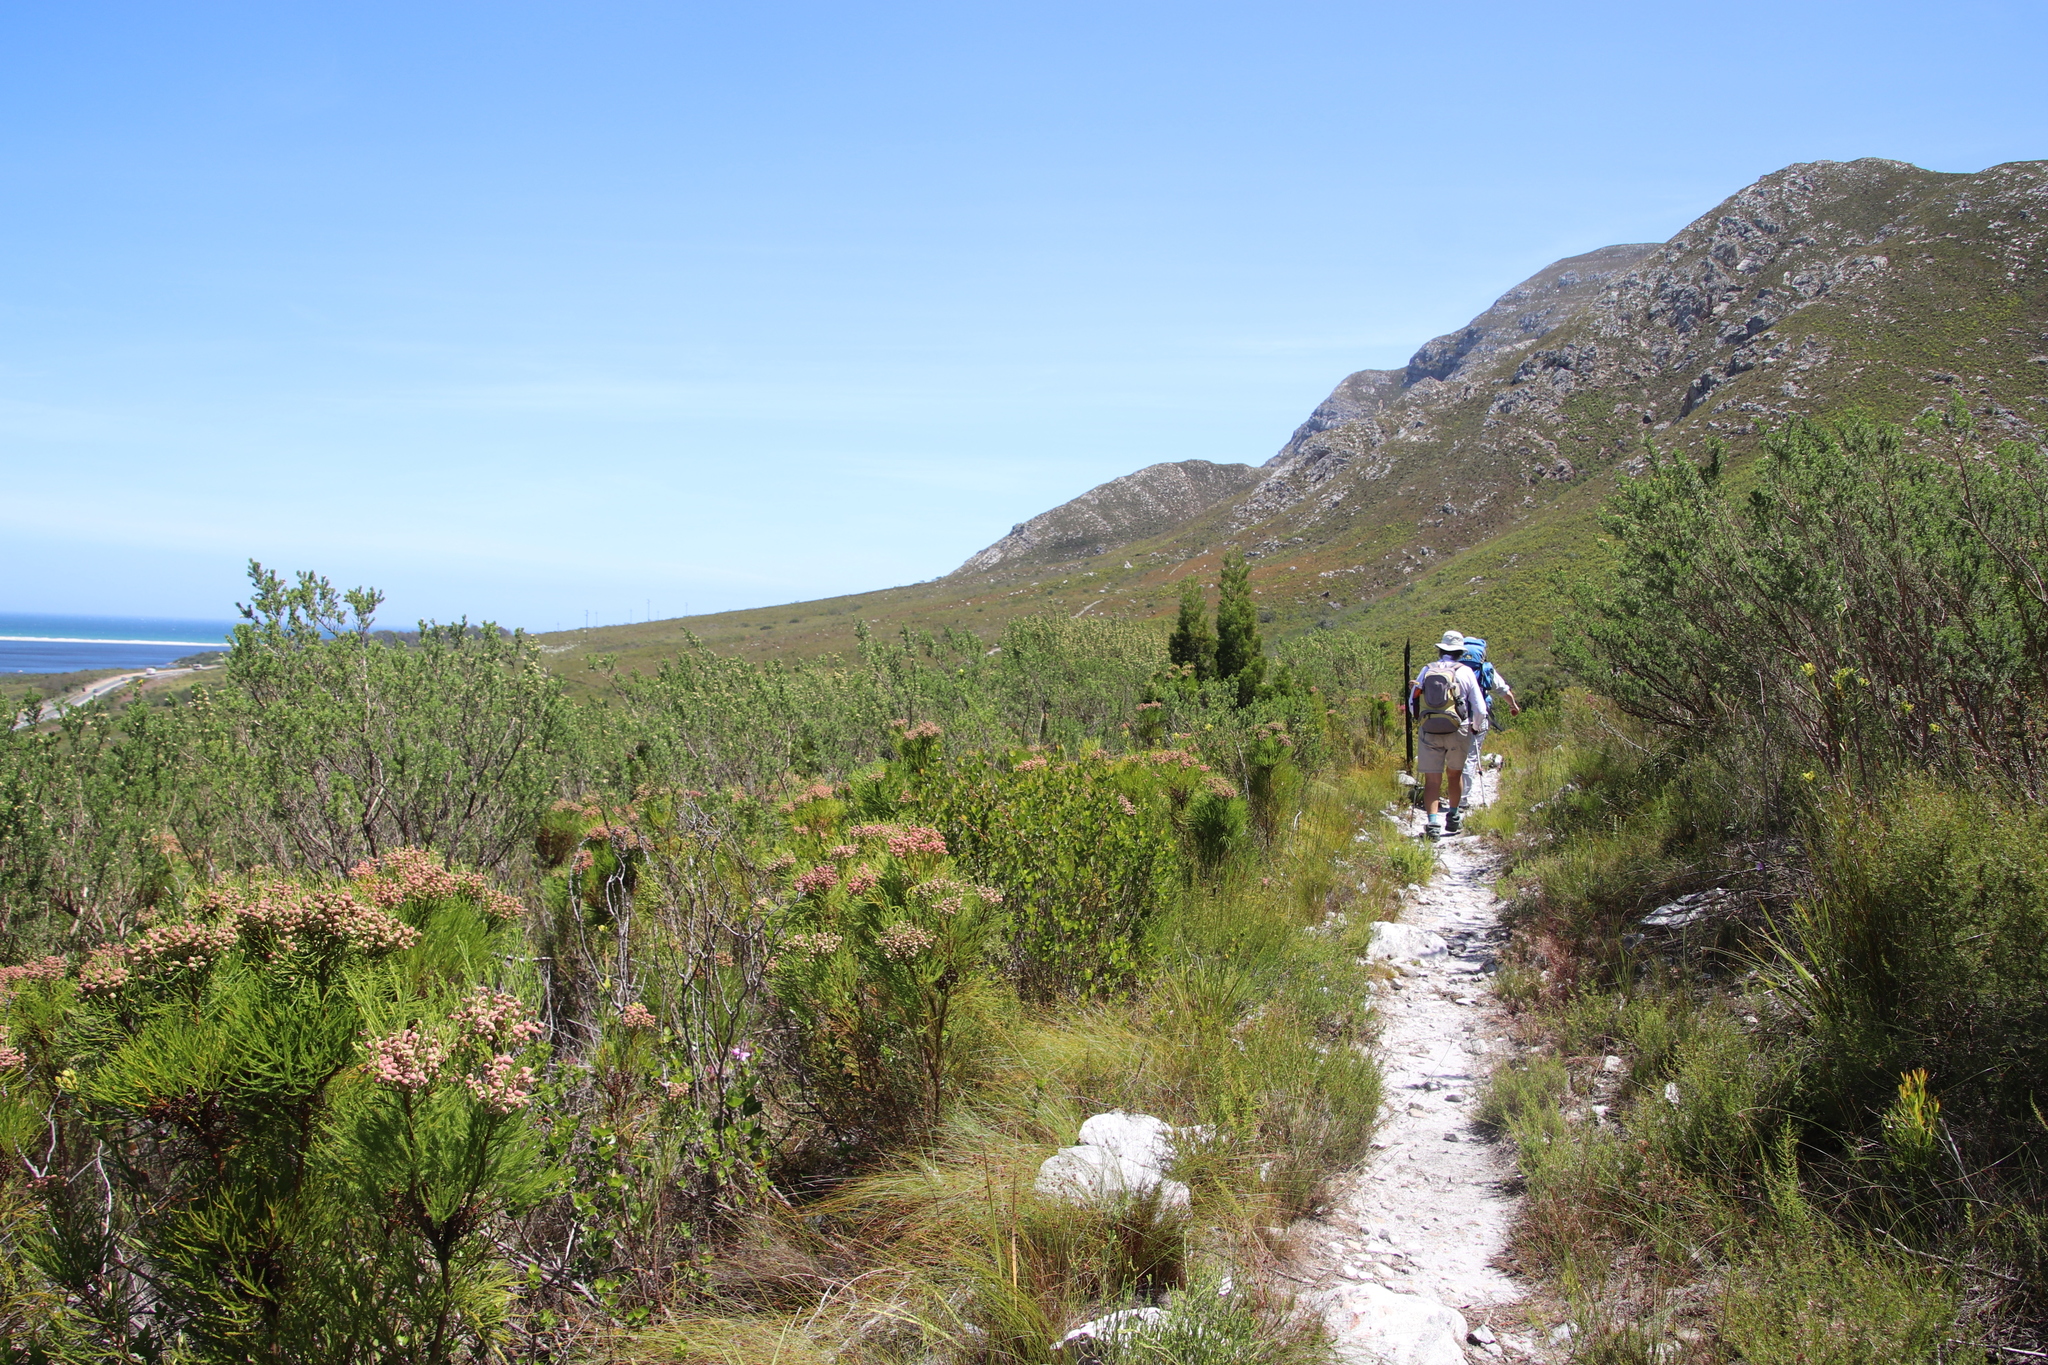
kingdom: Plantae
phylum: Tracheophyta
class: Magnoliopsida
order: Bruniales
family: Bruniaceae
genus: Berzelia
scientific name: Berzelia lanuginosa
